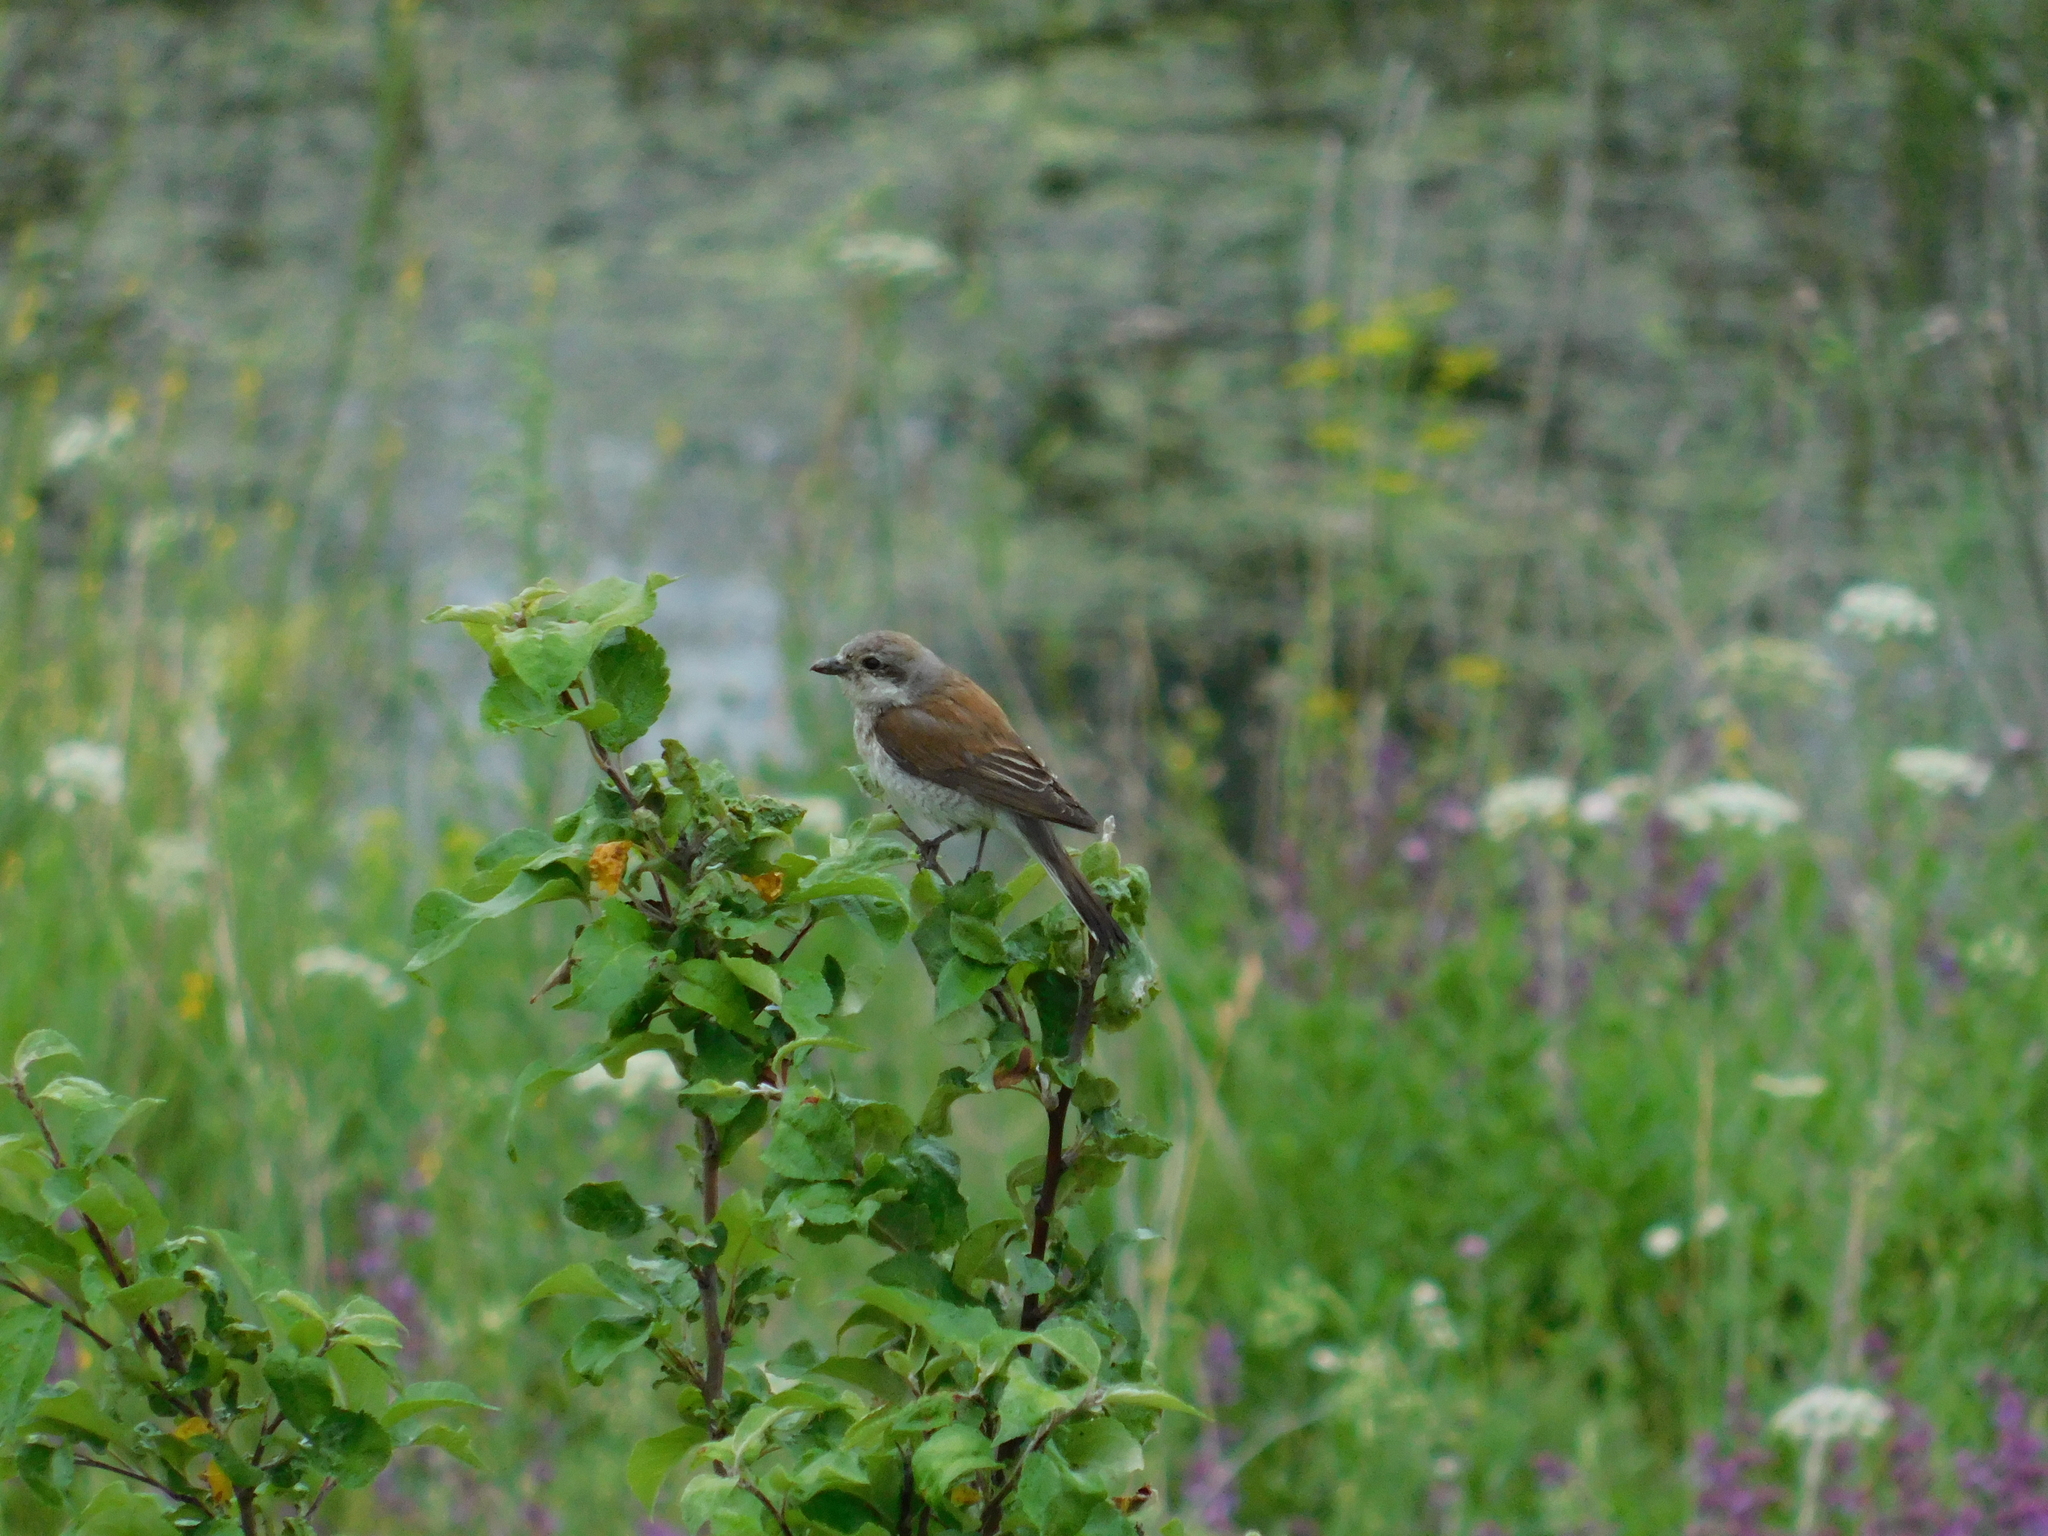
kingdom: Animalia
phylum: Chordata
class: Aves
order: Passeriformes
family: Laniidae
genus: Lanius
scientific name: Lanius collurio
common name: Red-backed shrike
